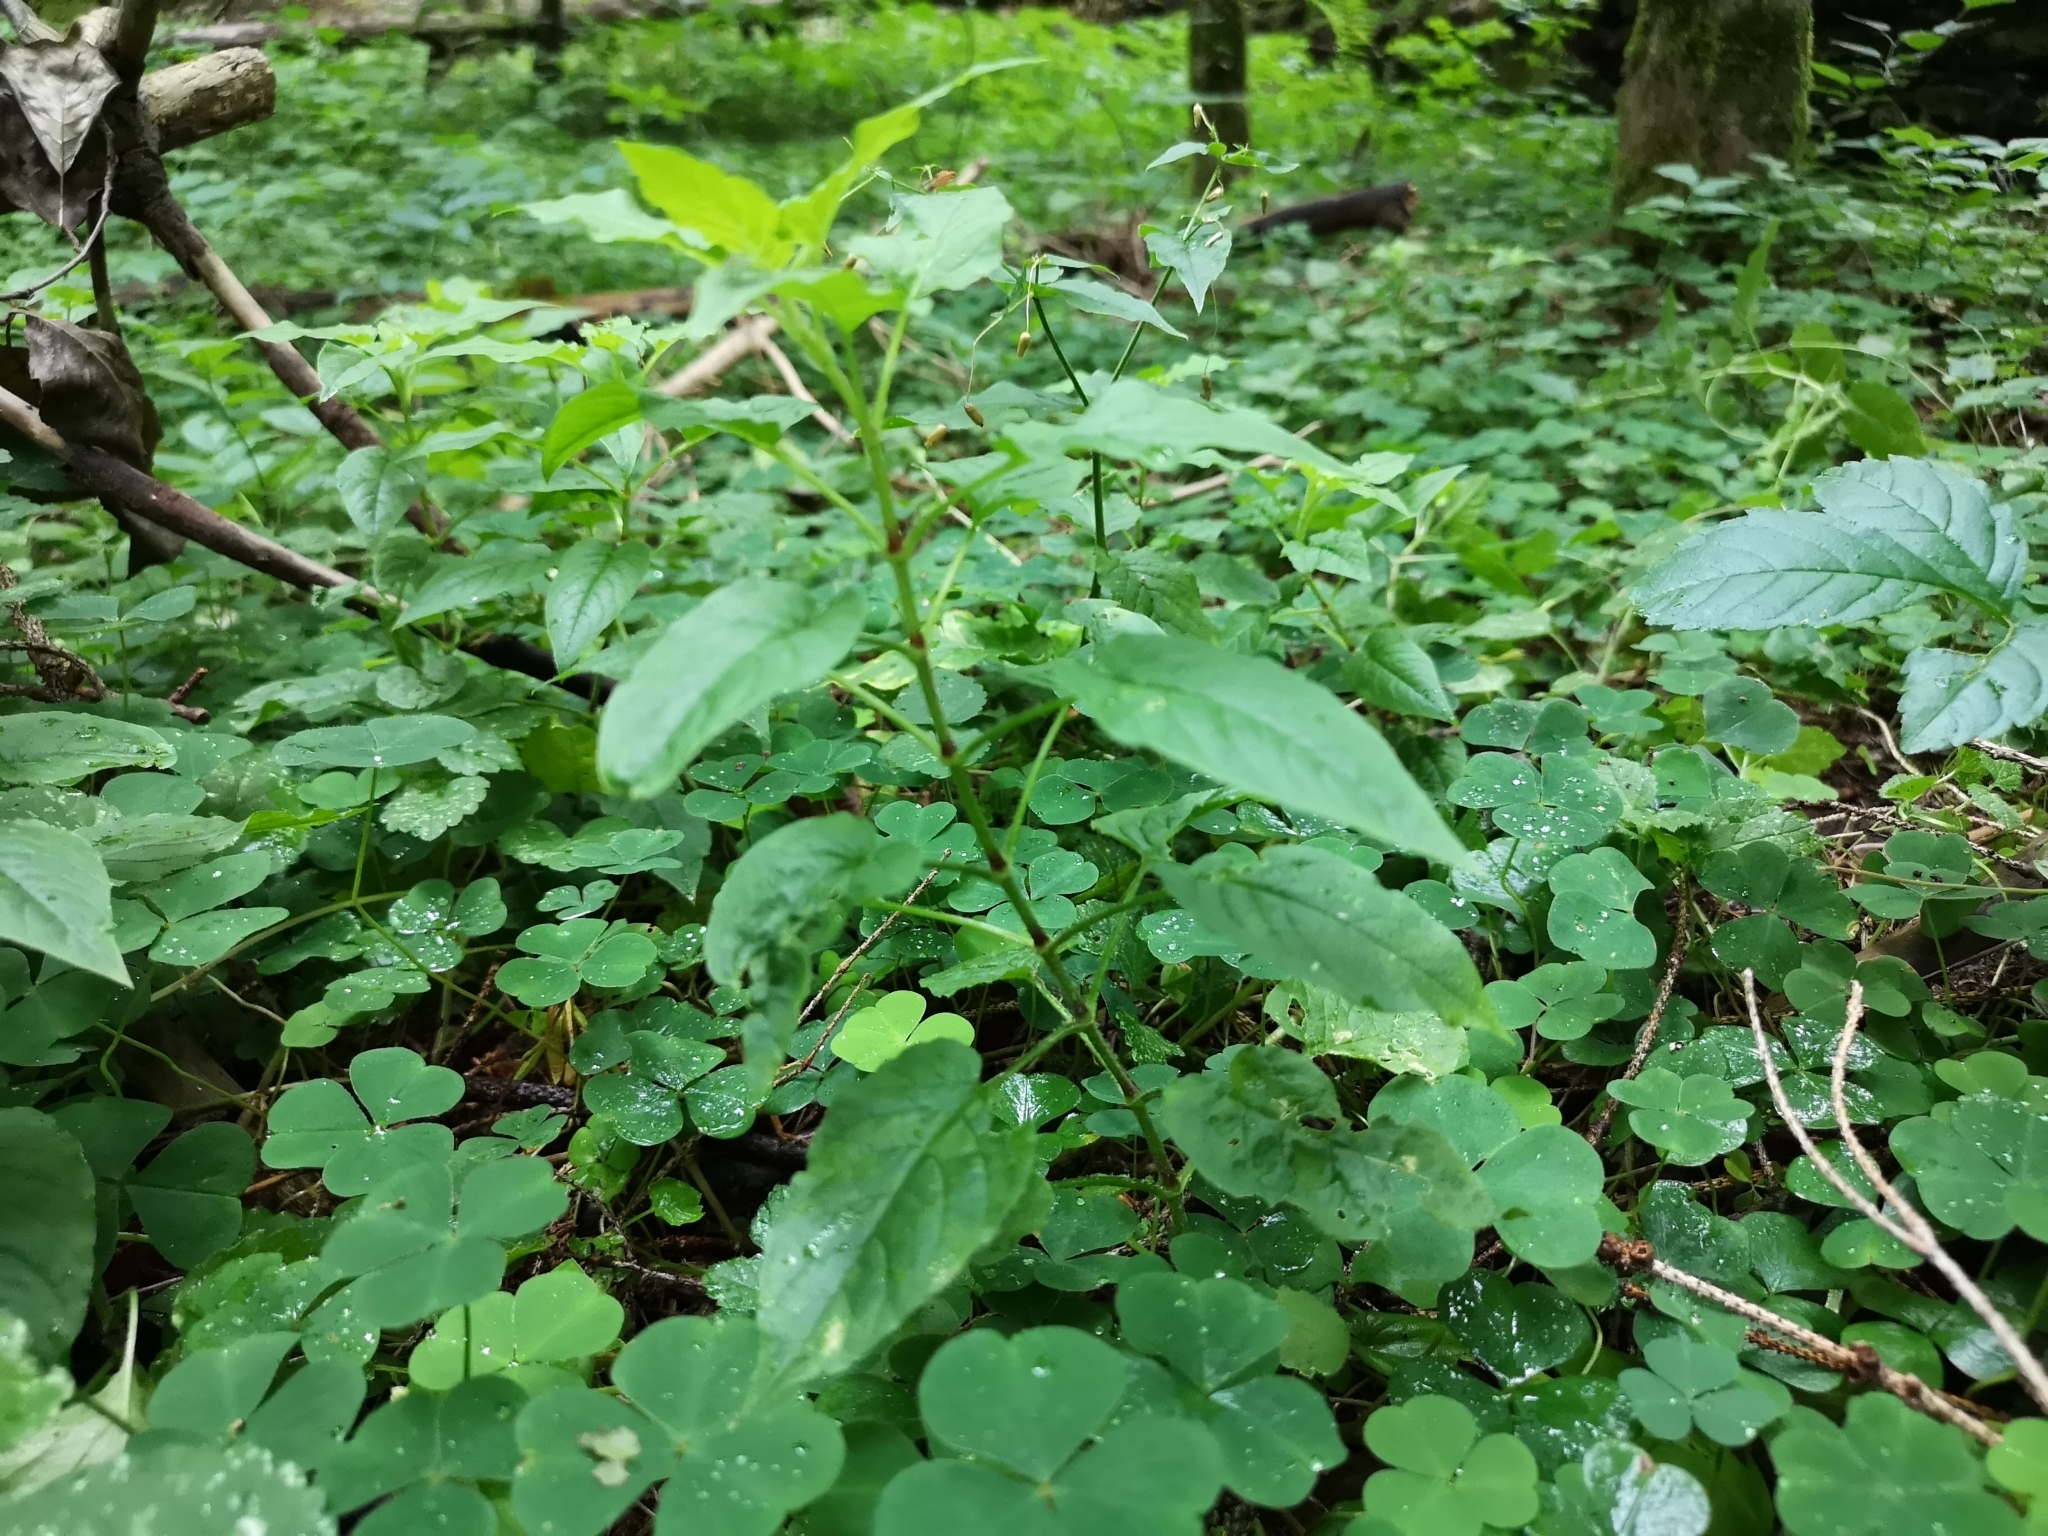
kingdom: Plantae
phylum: Tracheophyta
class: Magnoliopsida
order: Caryophyllales
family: Caryophyllaceae
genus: Stellaria
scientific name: Stellaria nemorum
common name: Wood stitchwort
